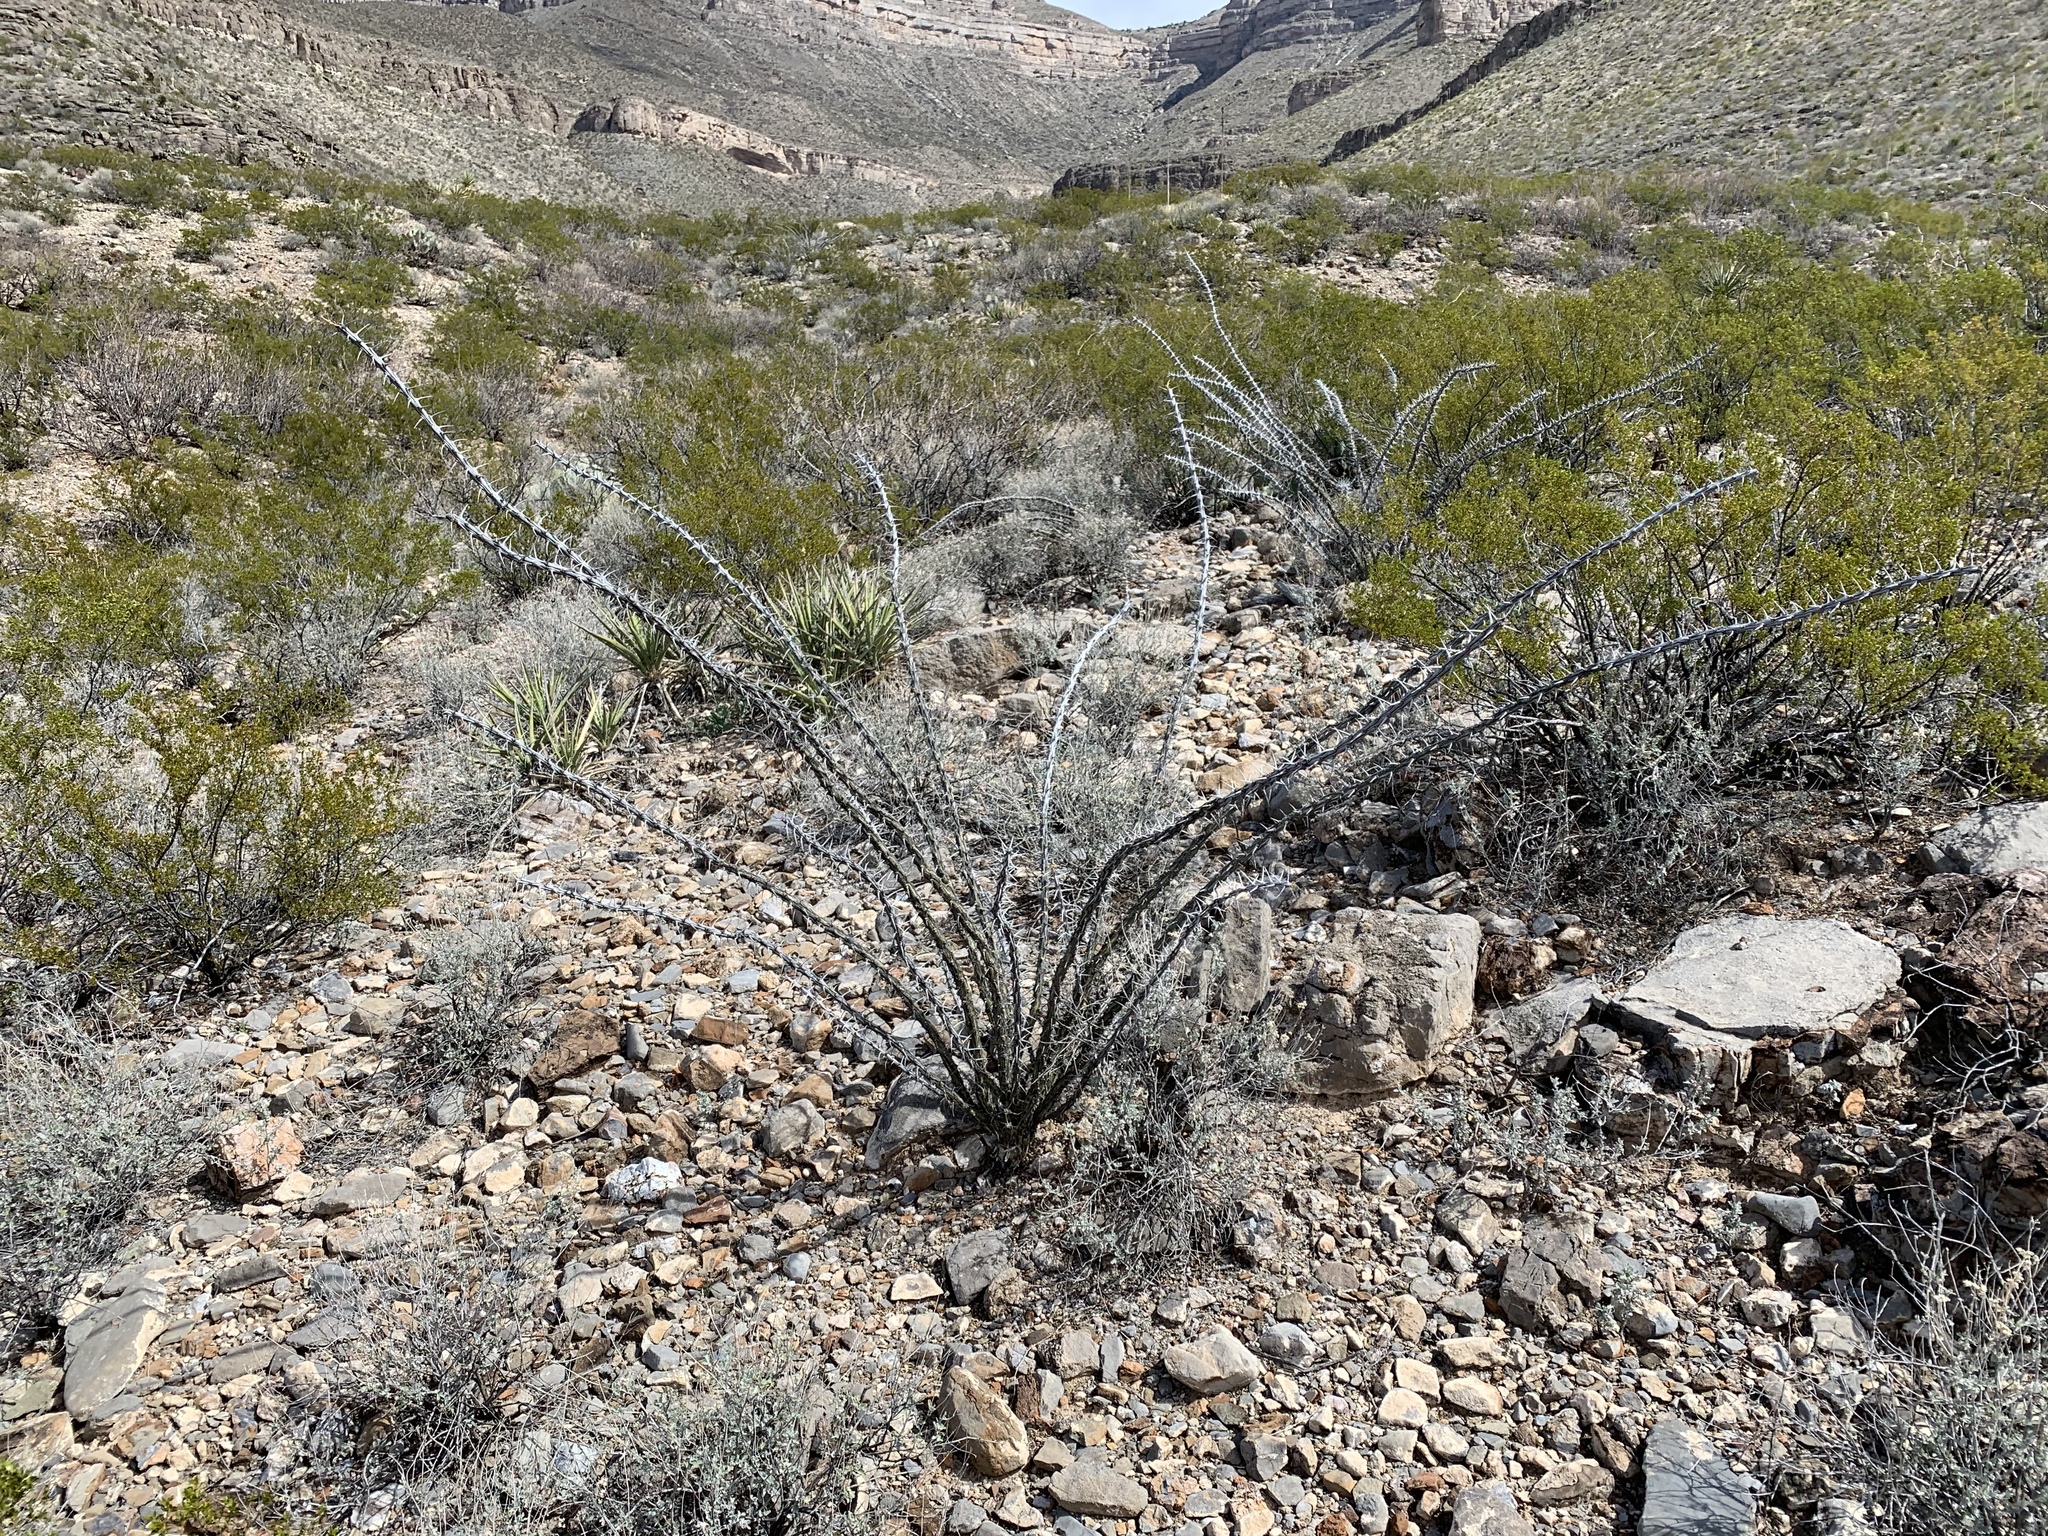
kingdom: Plantae
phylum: Tracheophyta
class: Magnoliopsida
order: Ericales
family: Fouquieriaceae
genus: Fouquieria
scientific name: Fouquieria splendens
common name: Vine-cactus
